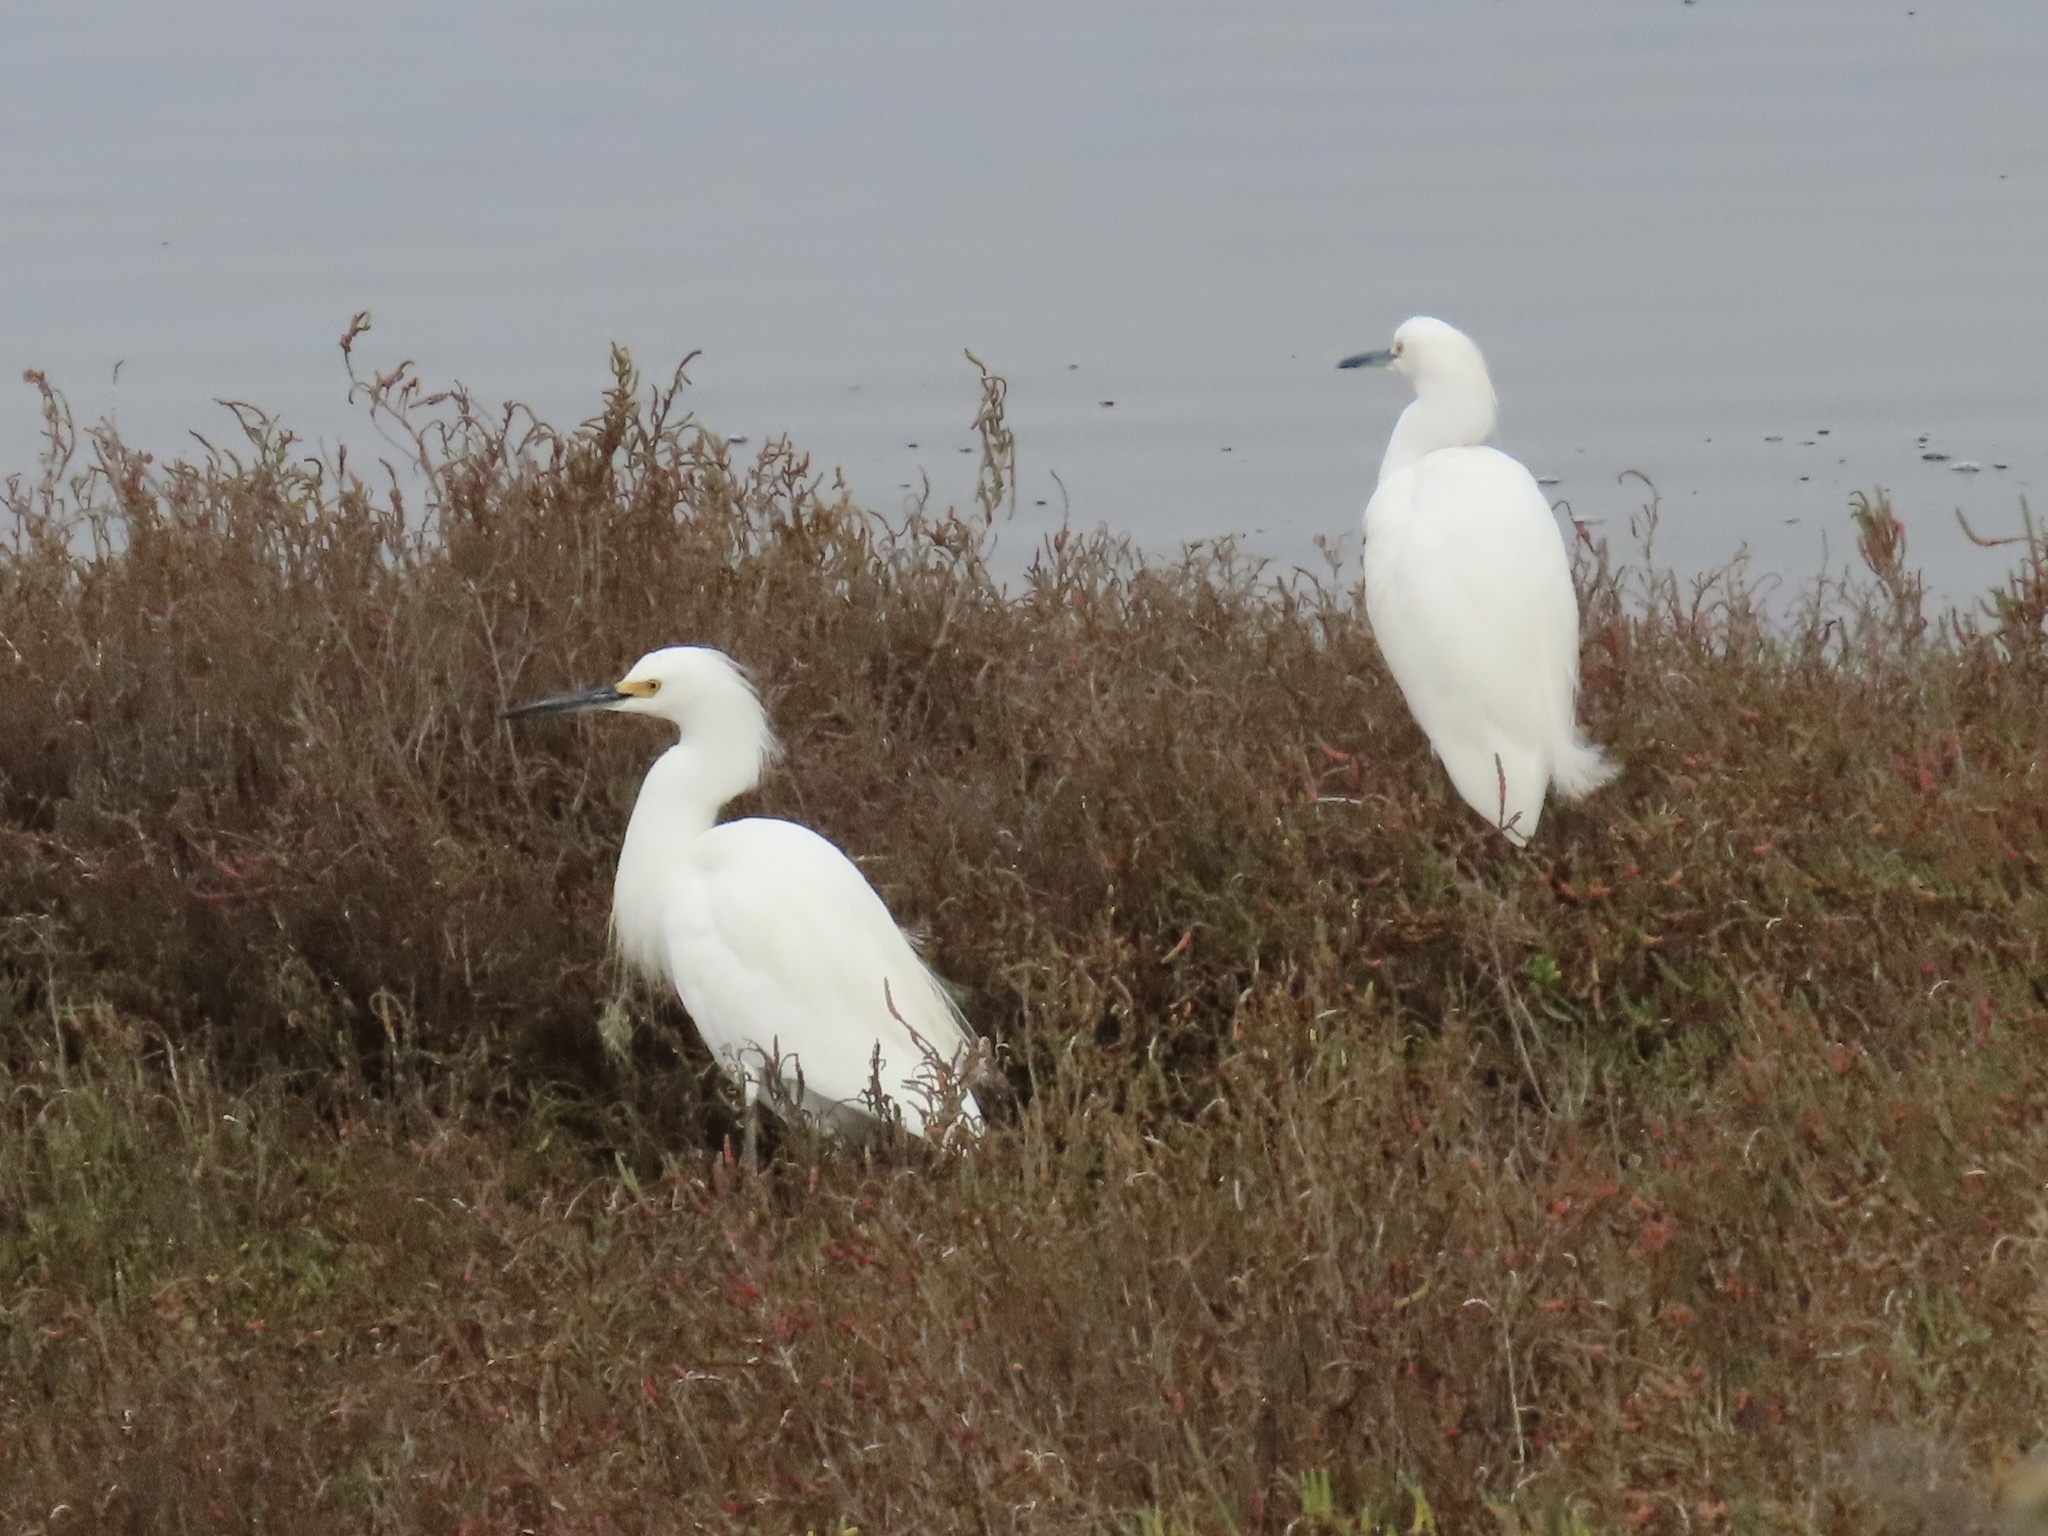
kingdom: Animalia
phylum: Chordata
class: Aves
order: Pelecaniformes
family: Ardeidae
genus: Egretta
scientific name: Egretta thula
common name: Snowy egret
